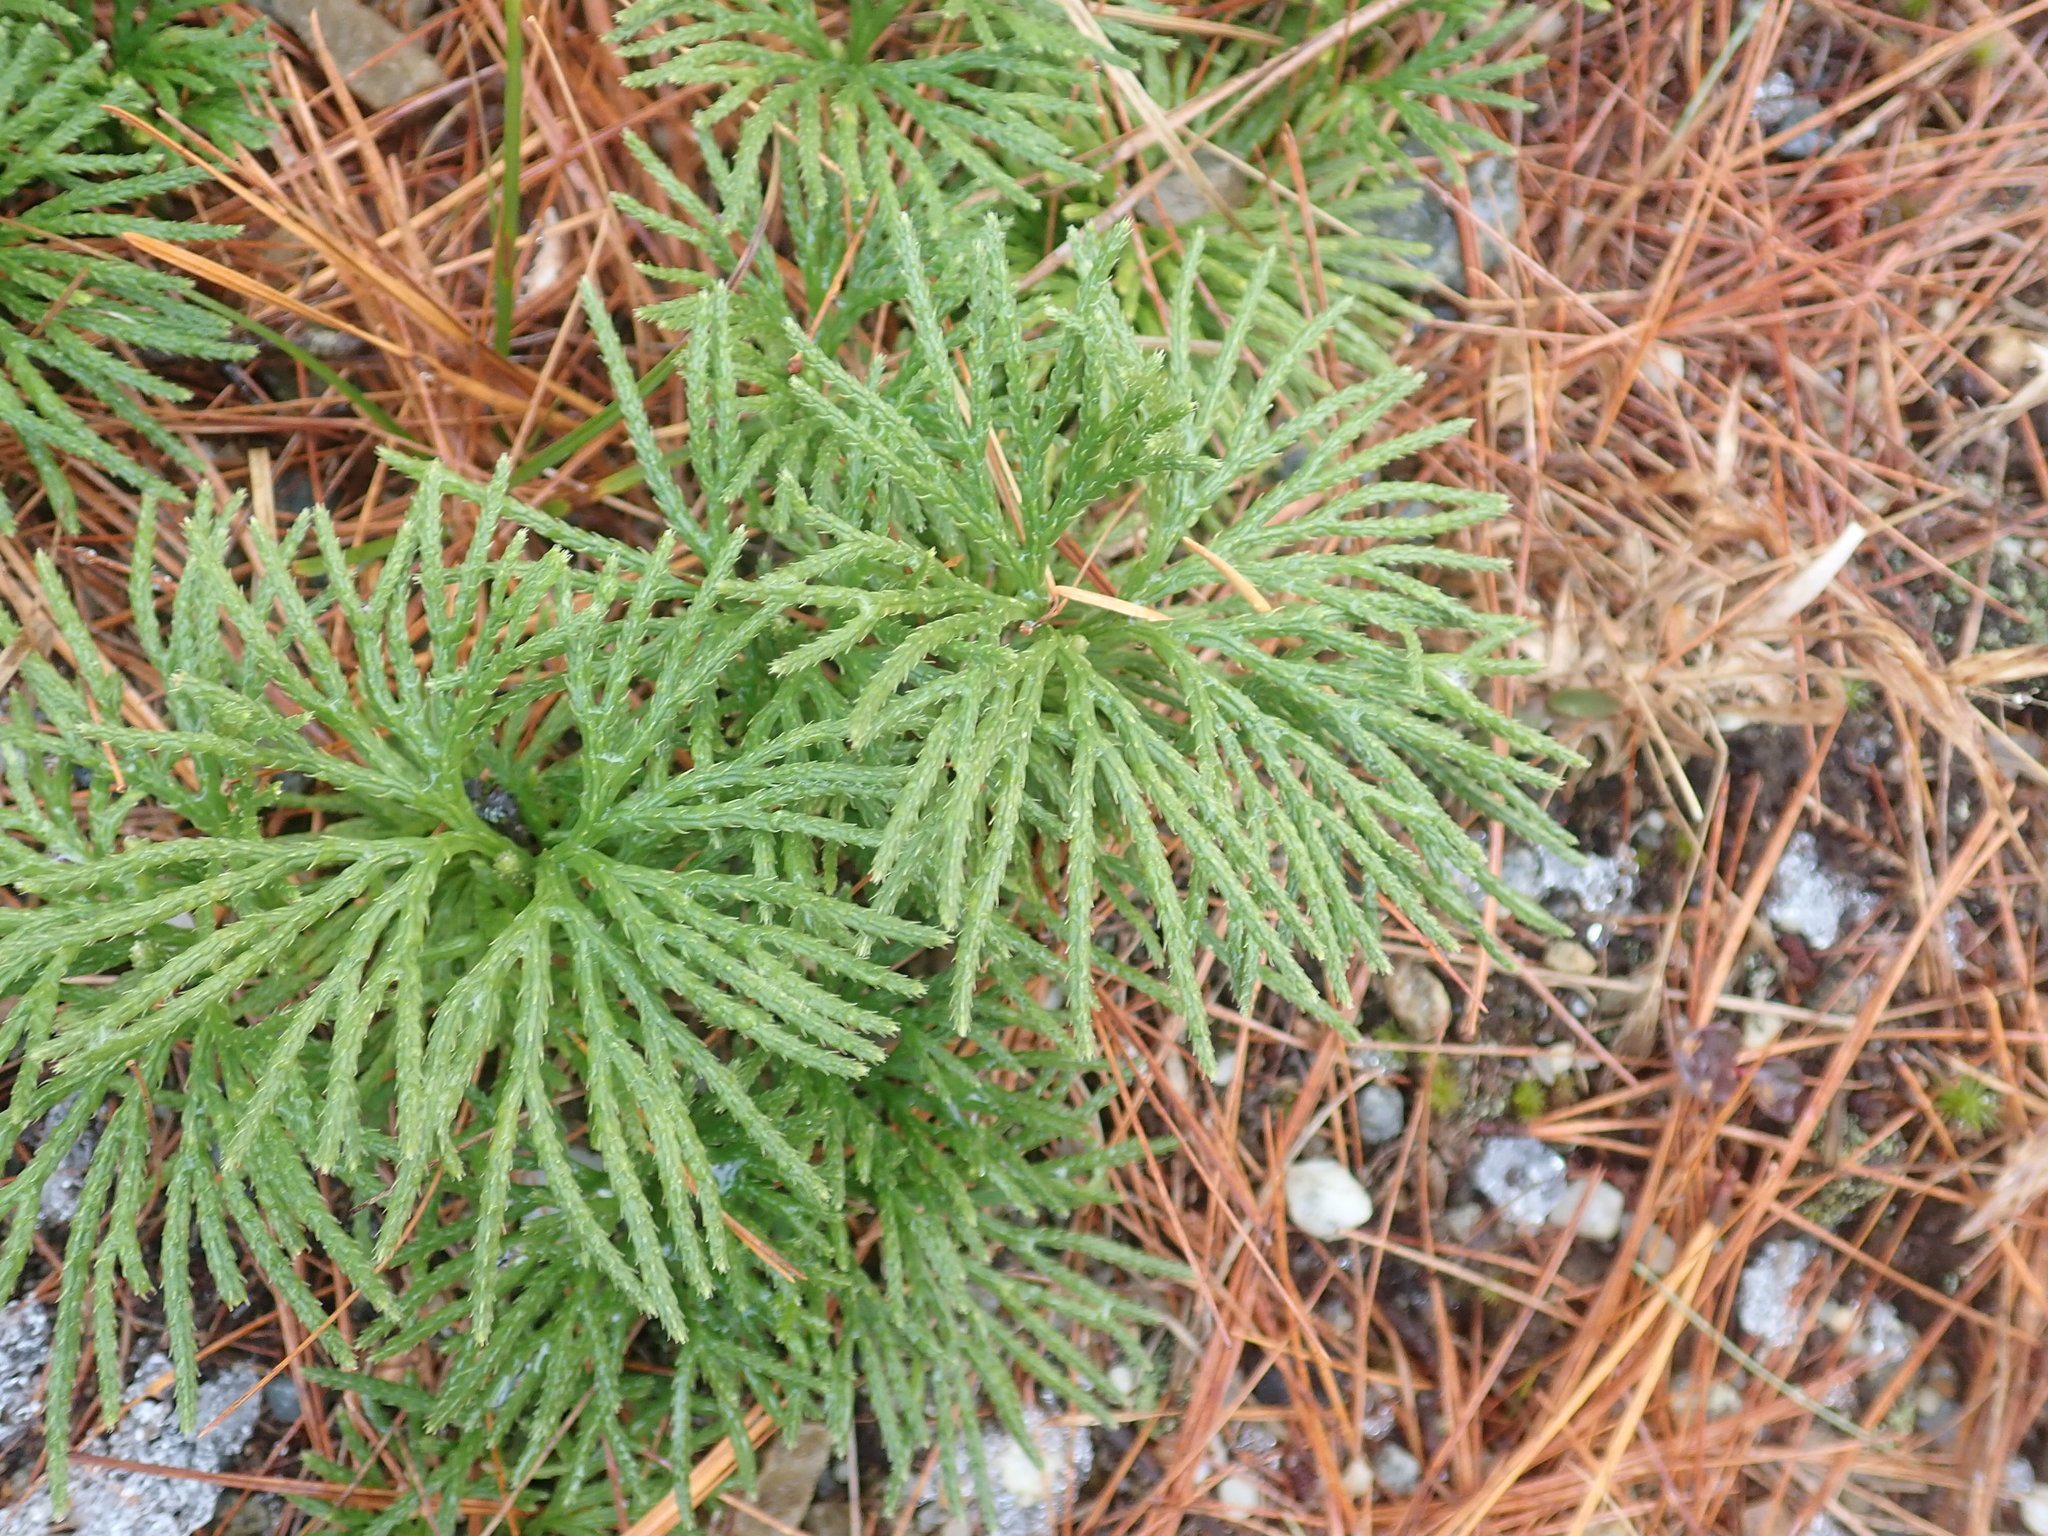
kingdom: Plantae
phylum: Tracheophyta
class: Lycopodiopsida
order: Lycopodiales
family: Lycopodiaceae
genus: Diphasiastrum
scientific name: Diphasiastrum digitatum
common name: Southern running-pine
